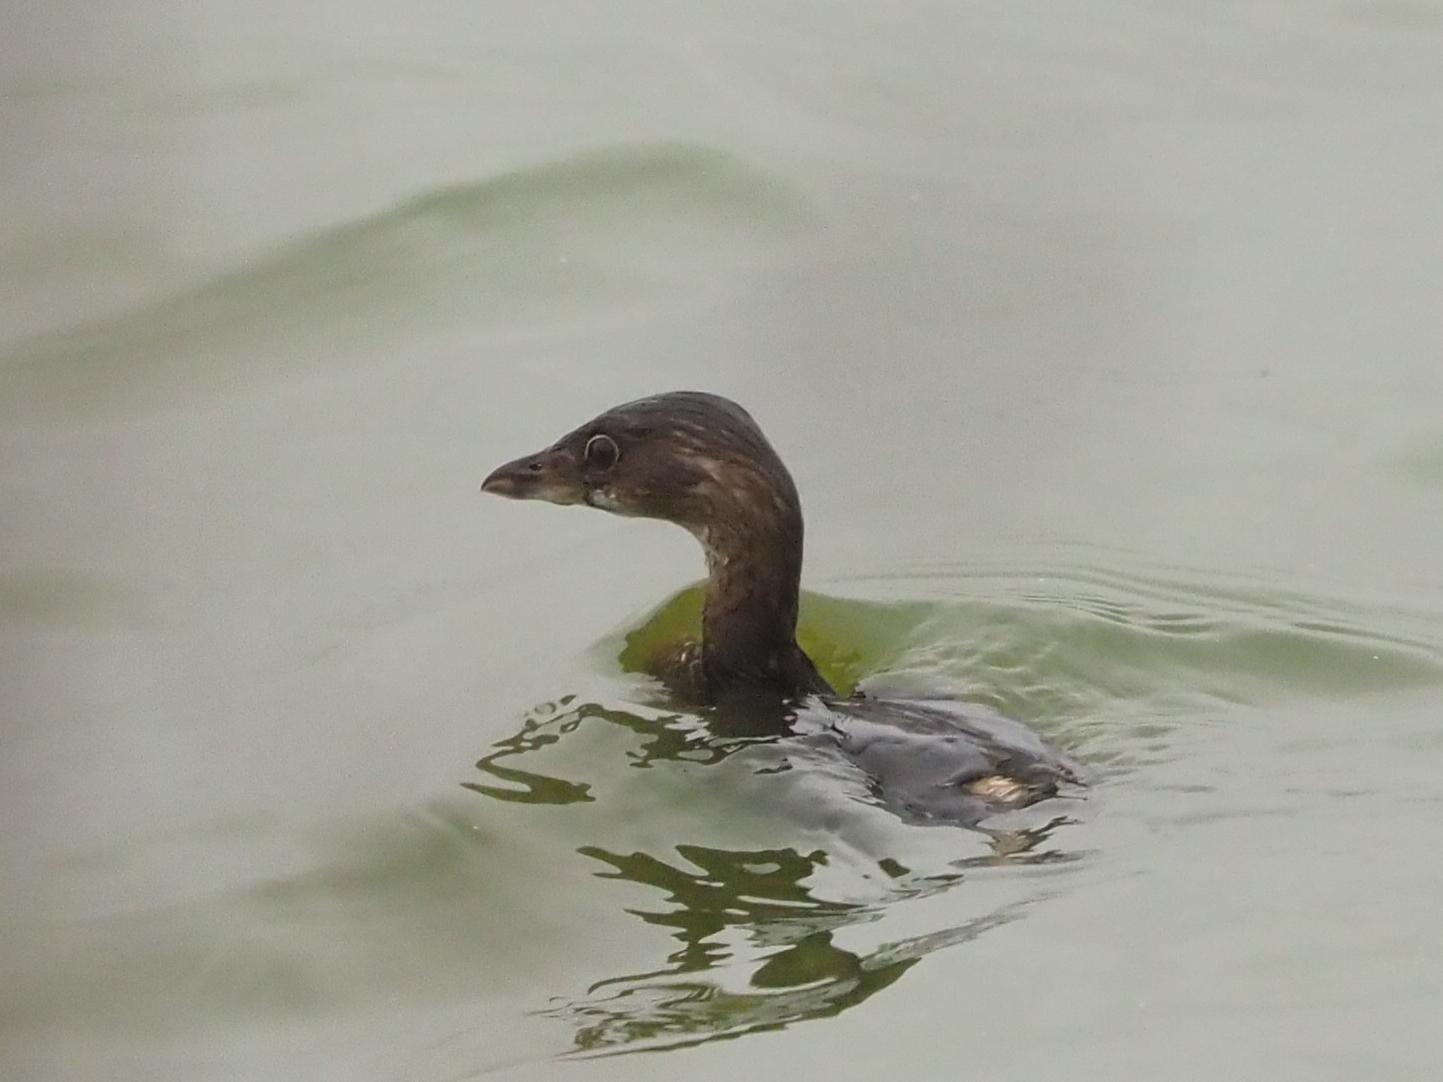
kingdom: Animalia
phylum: Chordata
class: Aves
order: Podicipediformes
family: Podicipedidae
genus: Podilymbus
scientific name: Podilymbus podiceps
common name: Pied-billed grebe
